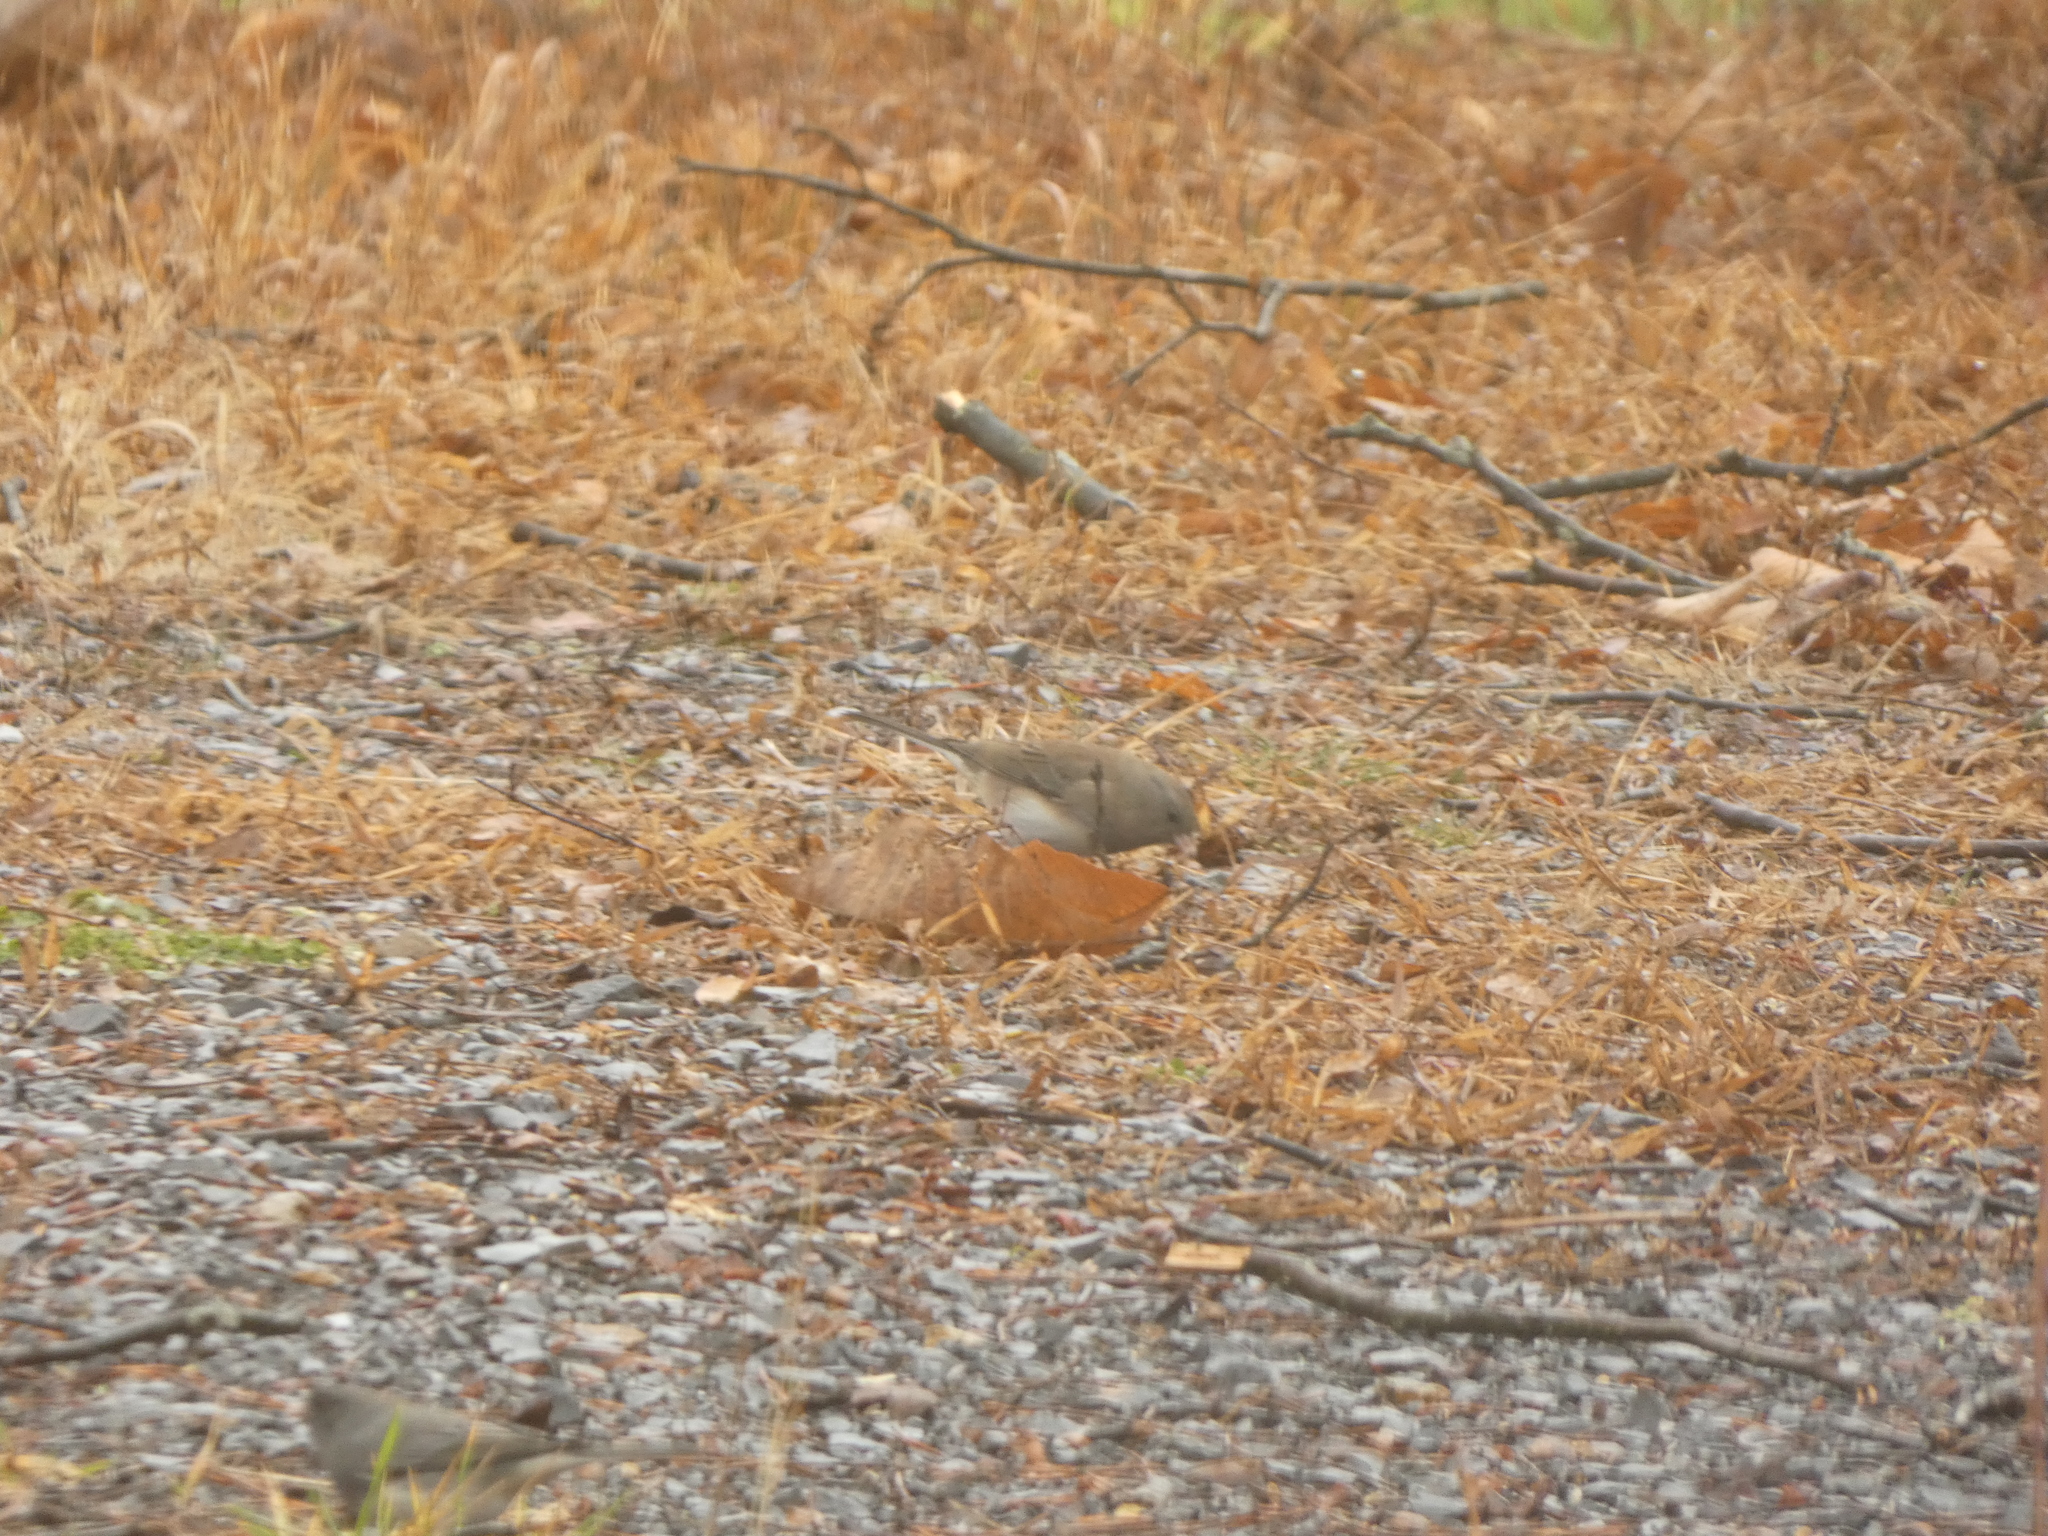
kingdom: Animalia
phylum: Chordata
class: Aves
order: Passeriformes
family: Passerellidae
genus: Junco
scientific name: Junco hyemalis
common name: Dark-eyed junco
